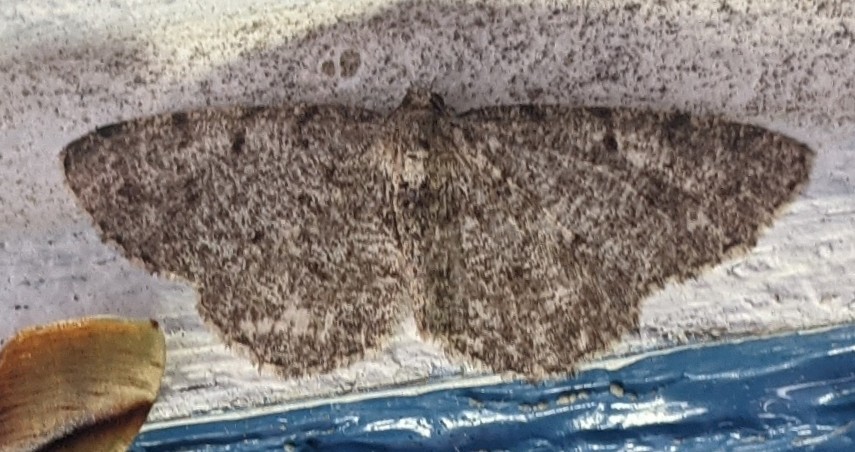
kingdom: Animalia
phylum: Arthropoda
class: Insecta
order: Lepidoptera
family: Geometridae
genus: Aethalura
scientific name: Aethalura intertexta
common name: Four-barred gray
